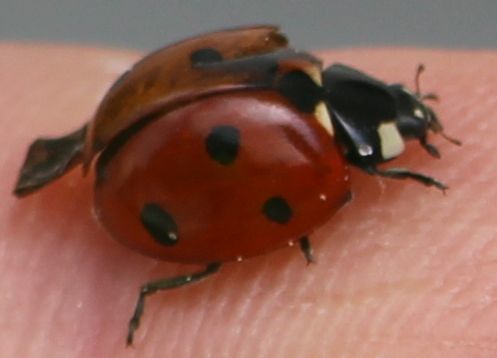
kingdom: Animalia
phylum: Arthropoda
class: Insecta
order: Coleoptera
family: Coccinellidae
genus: Coccinella
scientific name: Coccinella septempunctata
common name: Sevenspotted lady beetle
